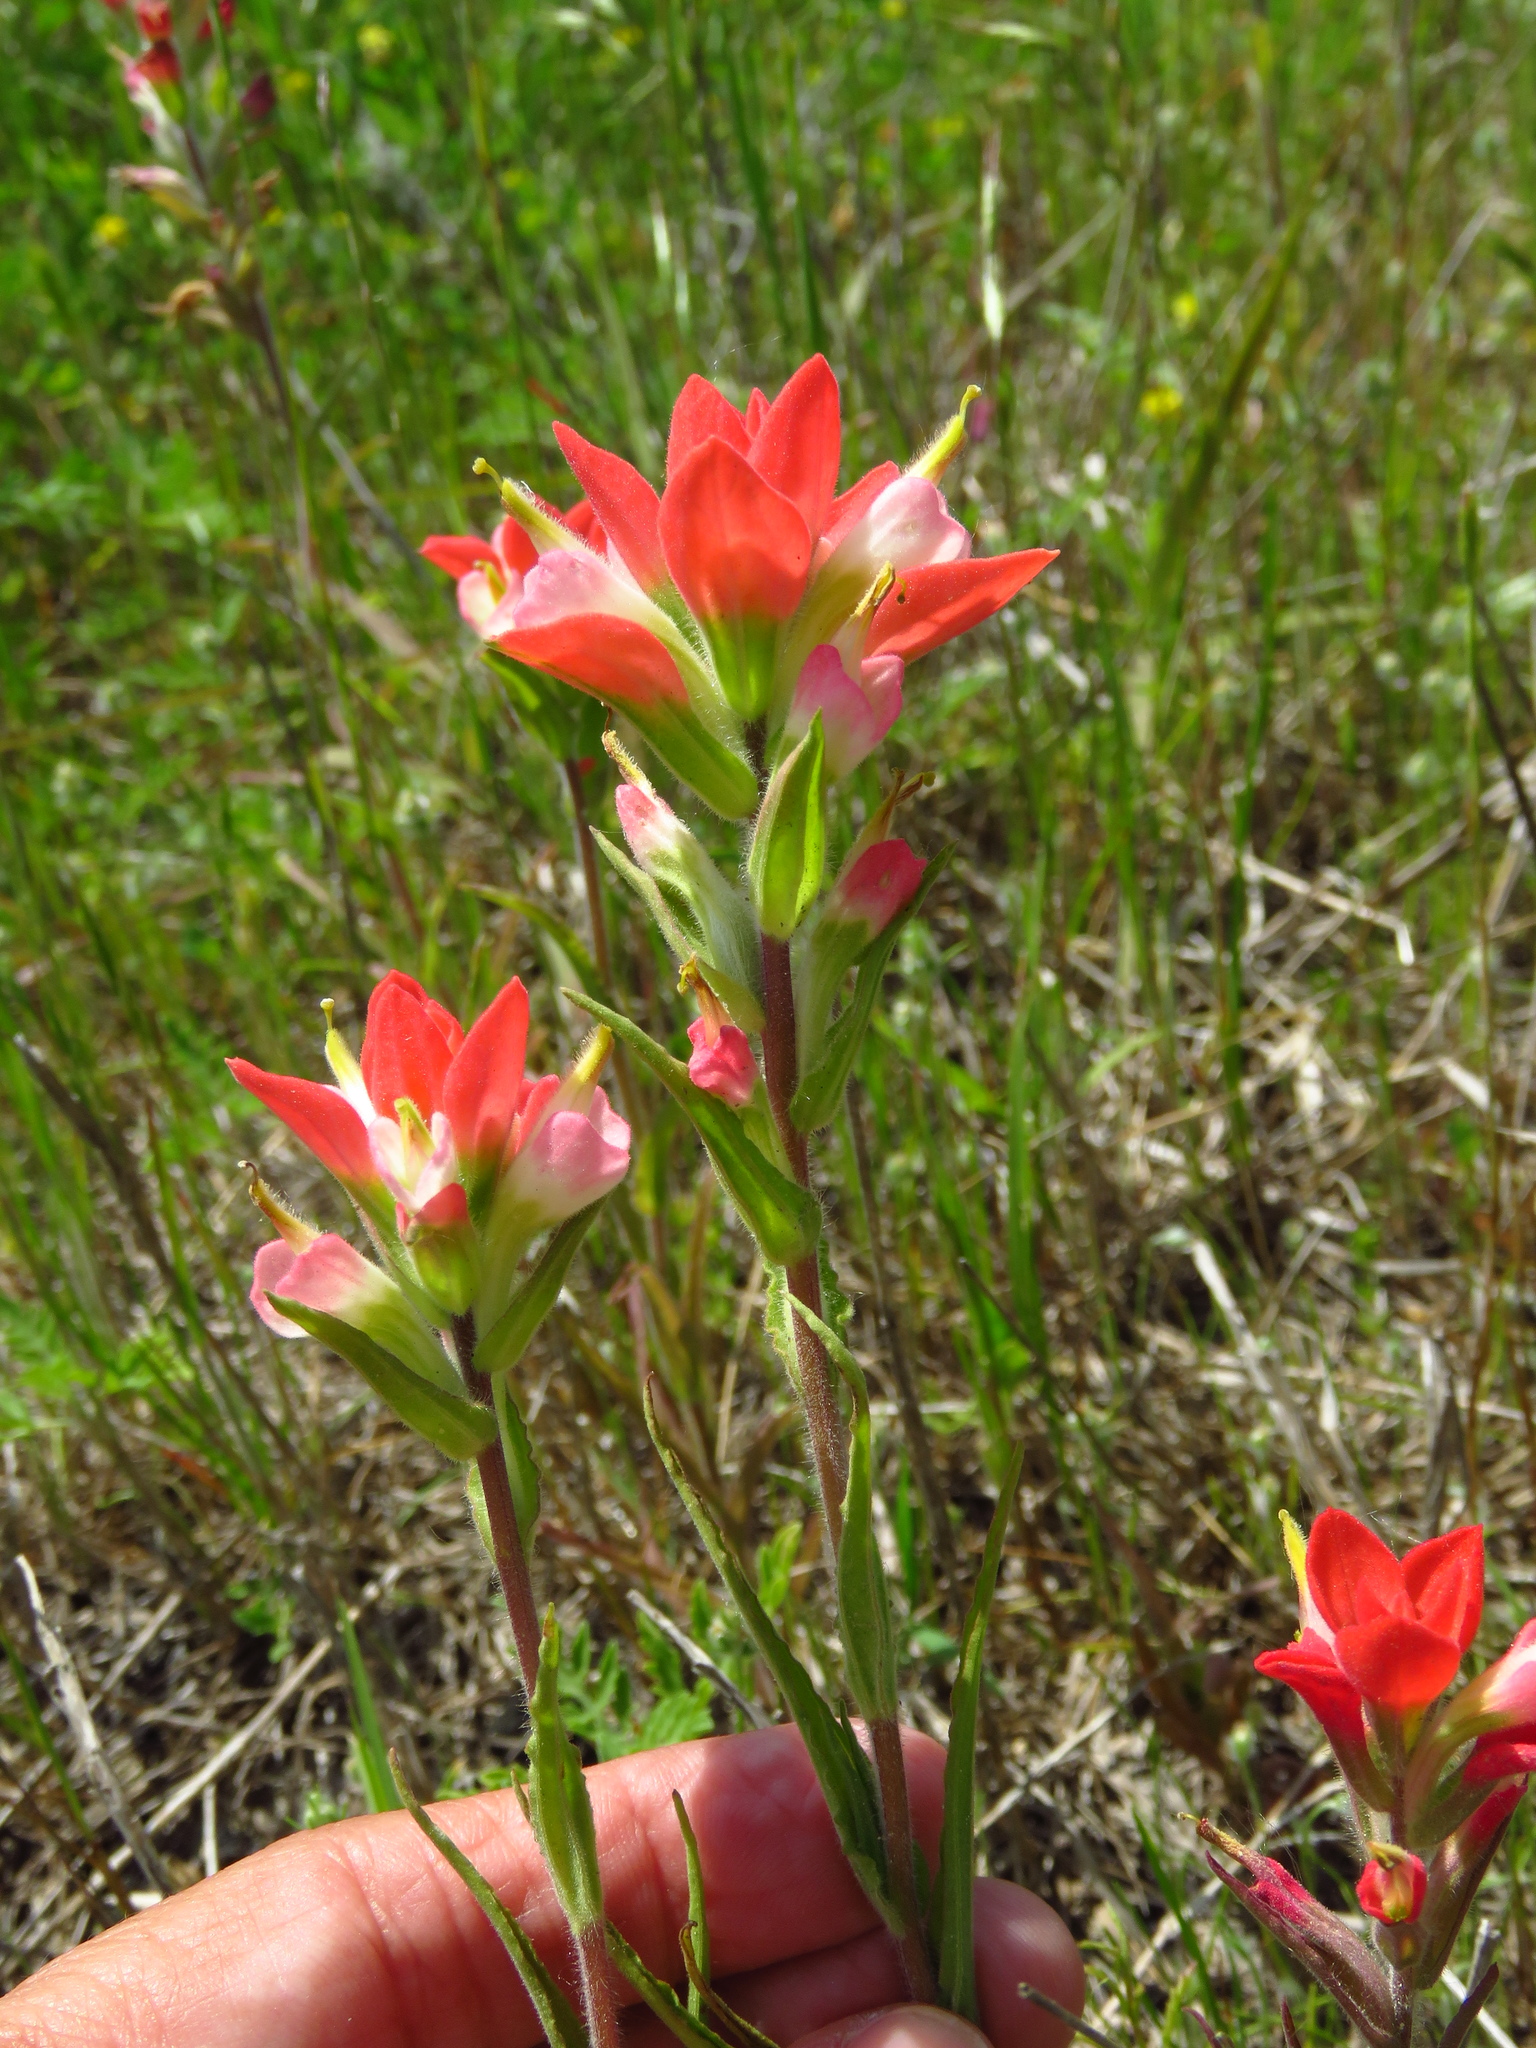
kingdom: Plantae
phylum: Tracheophyta
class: Magnoliopsida
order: Lamiales
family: Orobanchaceae
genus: Castilleja
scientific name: Castilleja indivisa
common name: Texas paintbrush
